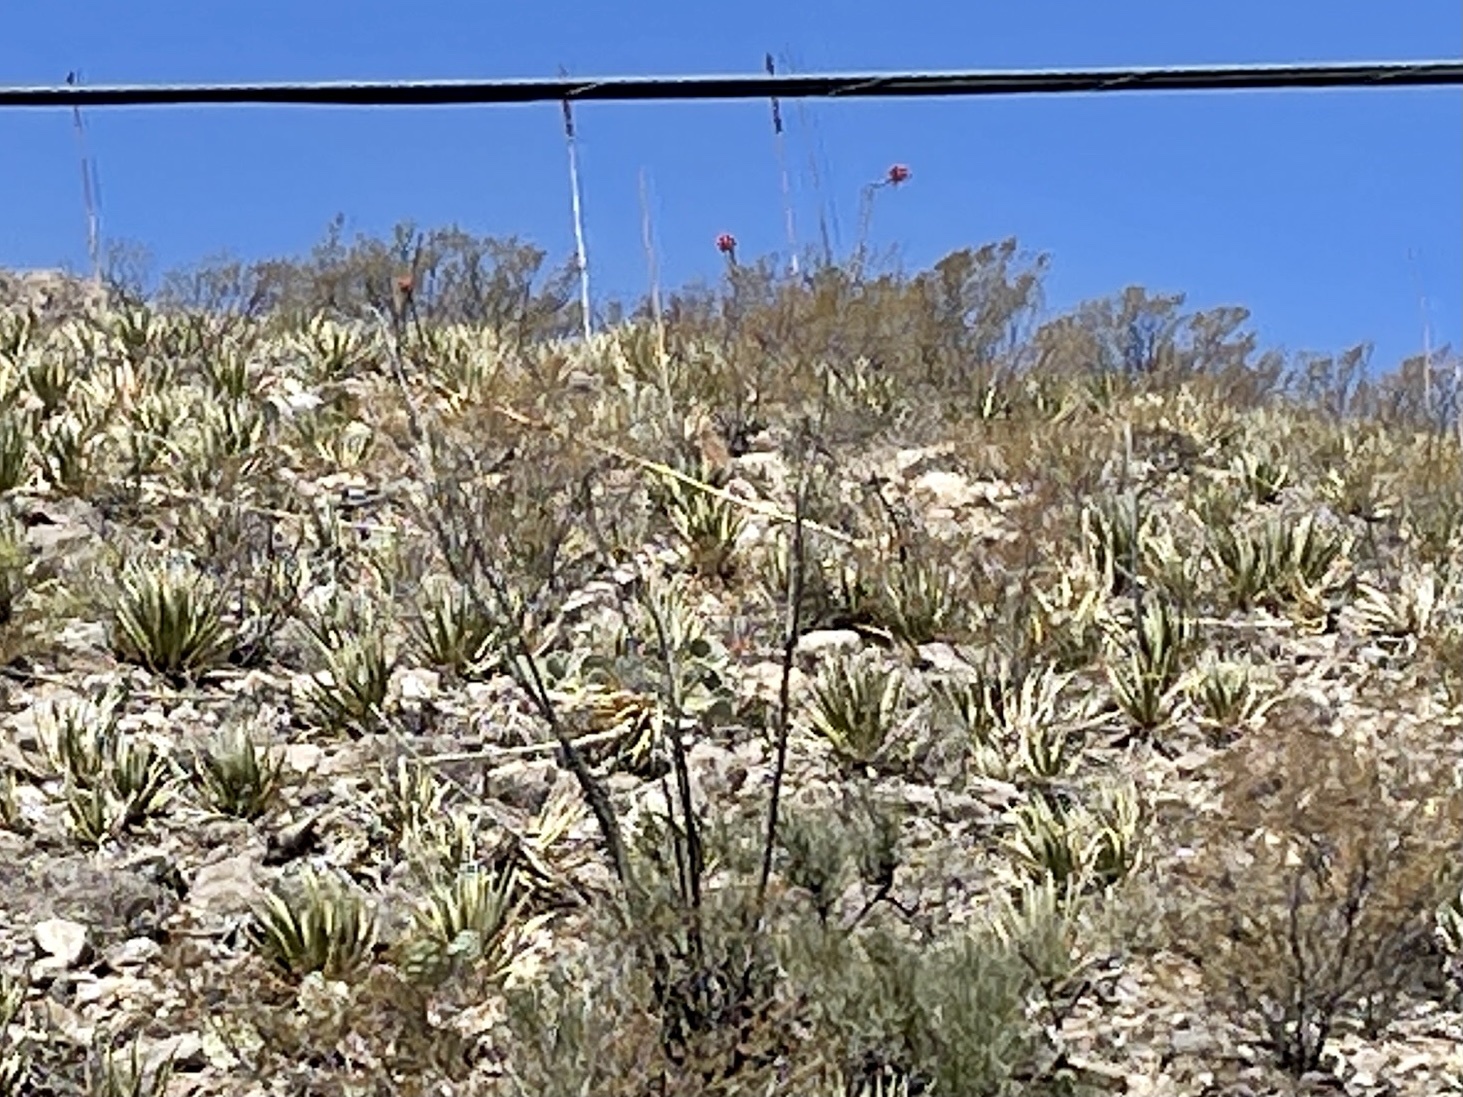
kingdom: Plantae
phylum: Tracheophyta
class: Magnoliopsida
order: Ericales
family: Fouquieriaceae
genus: Fouquieria
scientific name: Fouquieria splendens
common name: Vine-cactus
